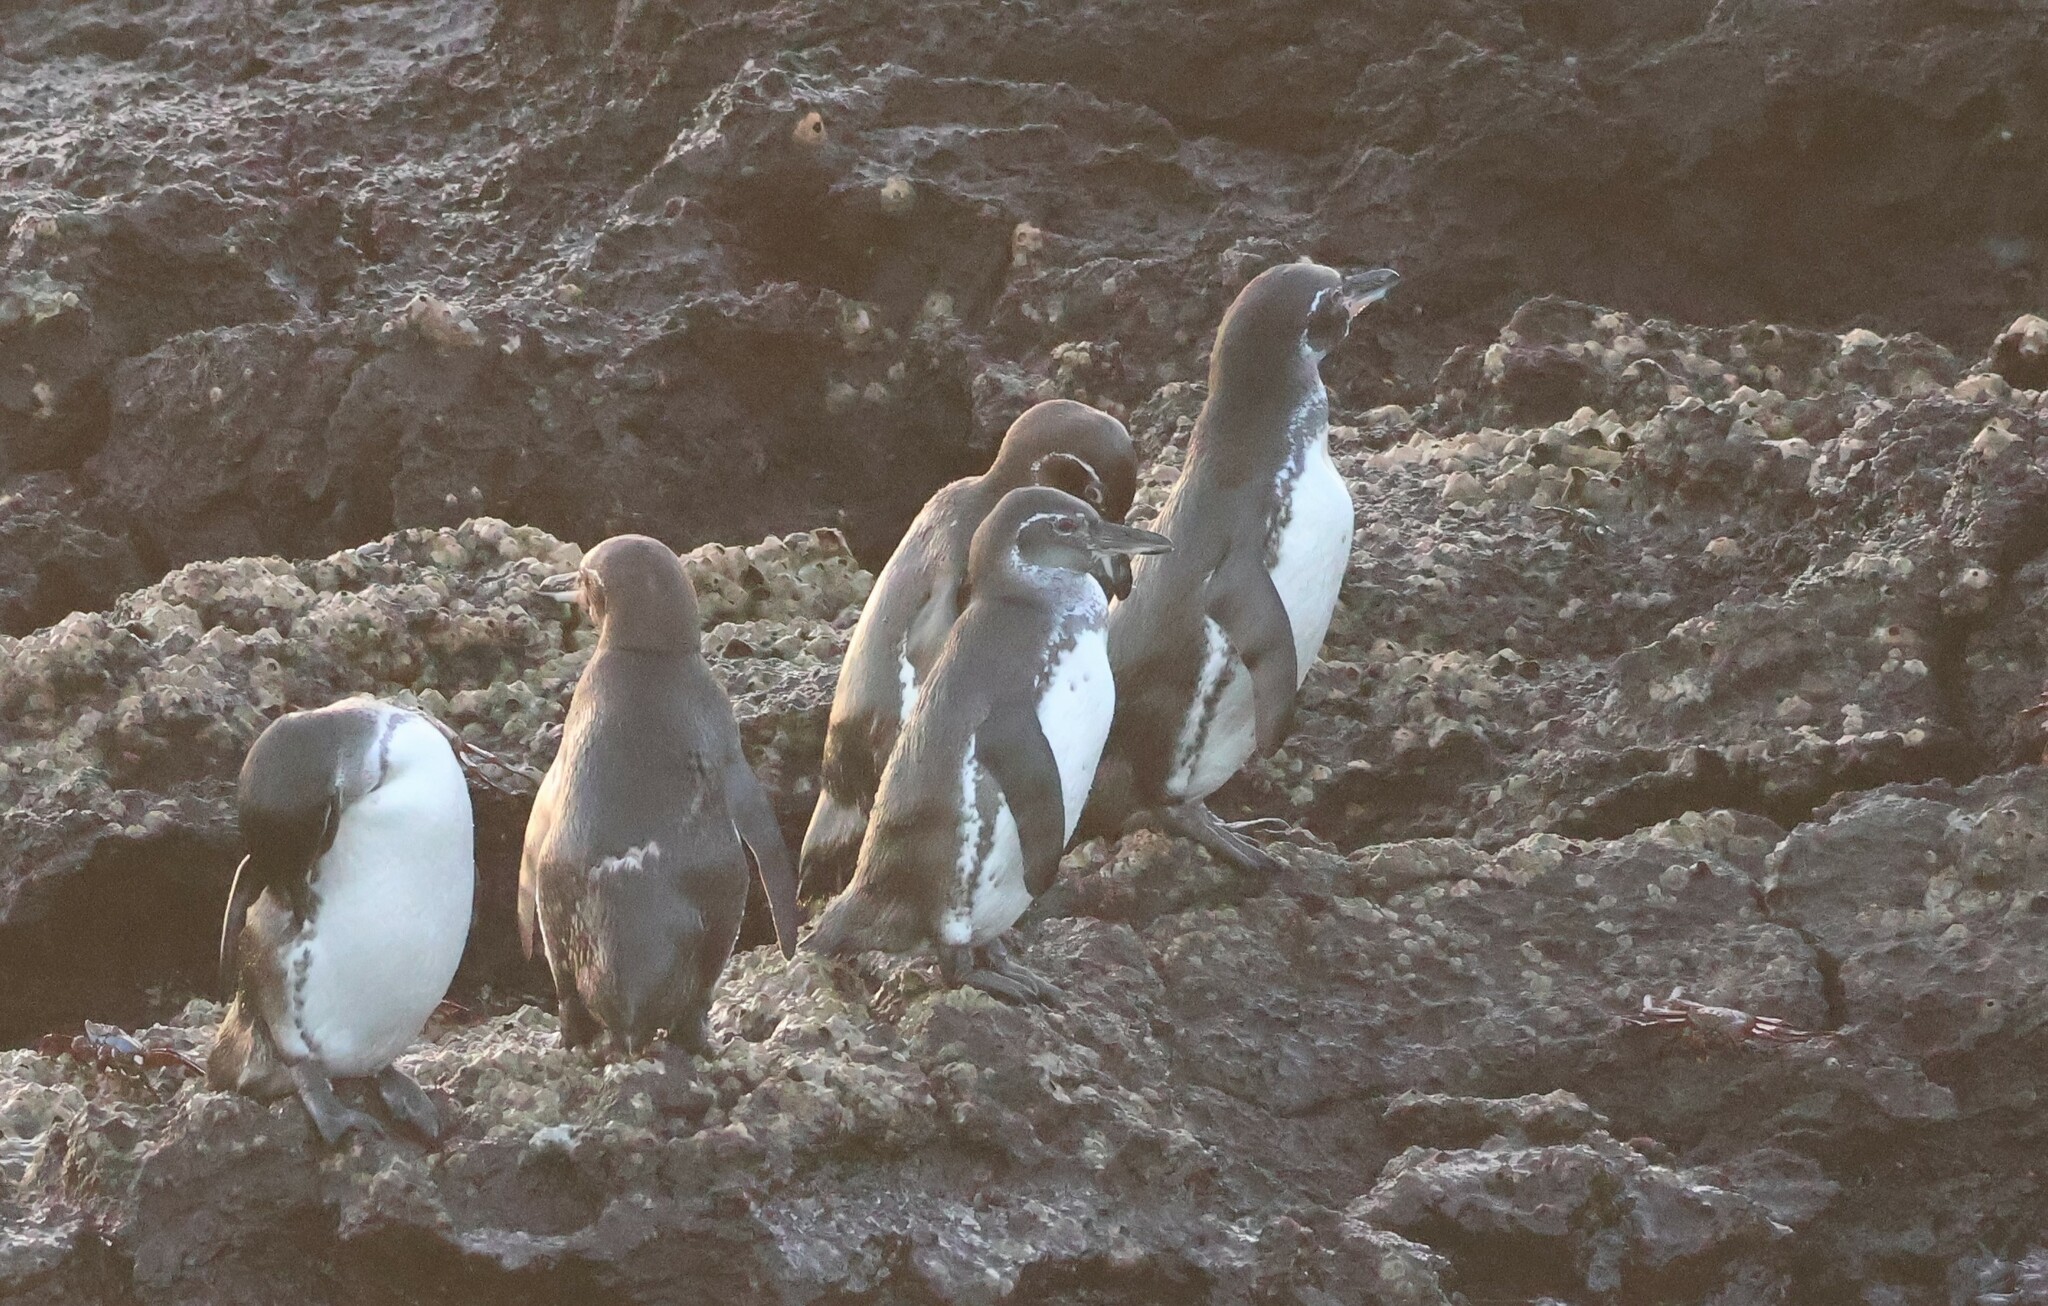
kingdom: Animalia
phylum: Chordata
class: Aves
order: Sphenisciformes
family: Spheniscidae
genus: Spheniscus
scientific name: Spheniscus mendiculus
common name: Galapagos penguin
